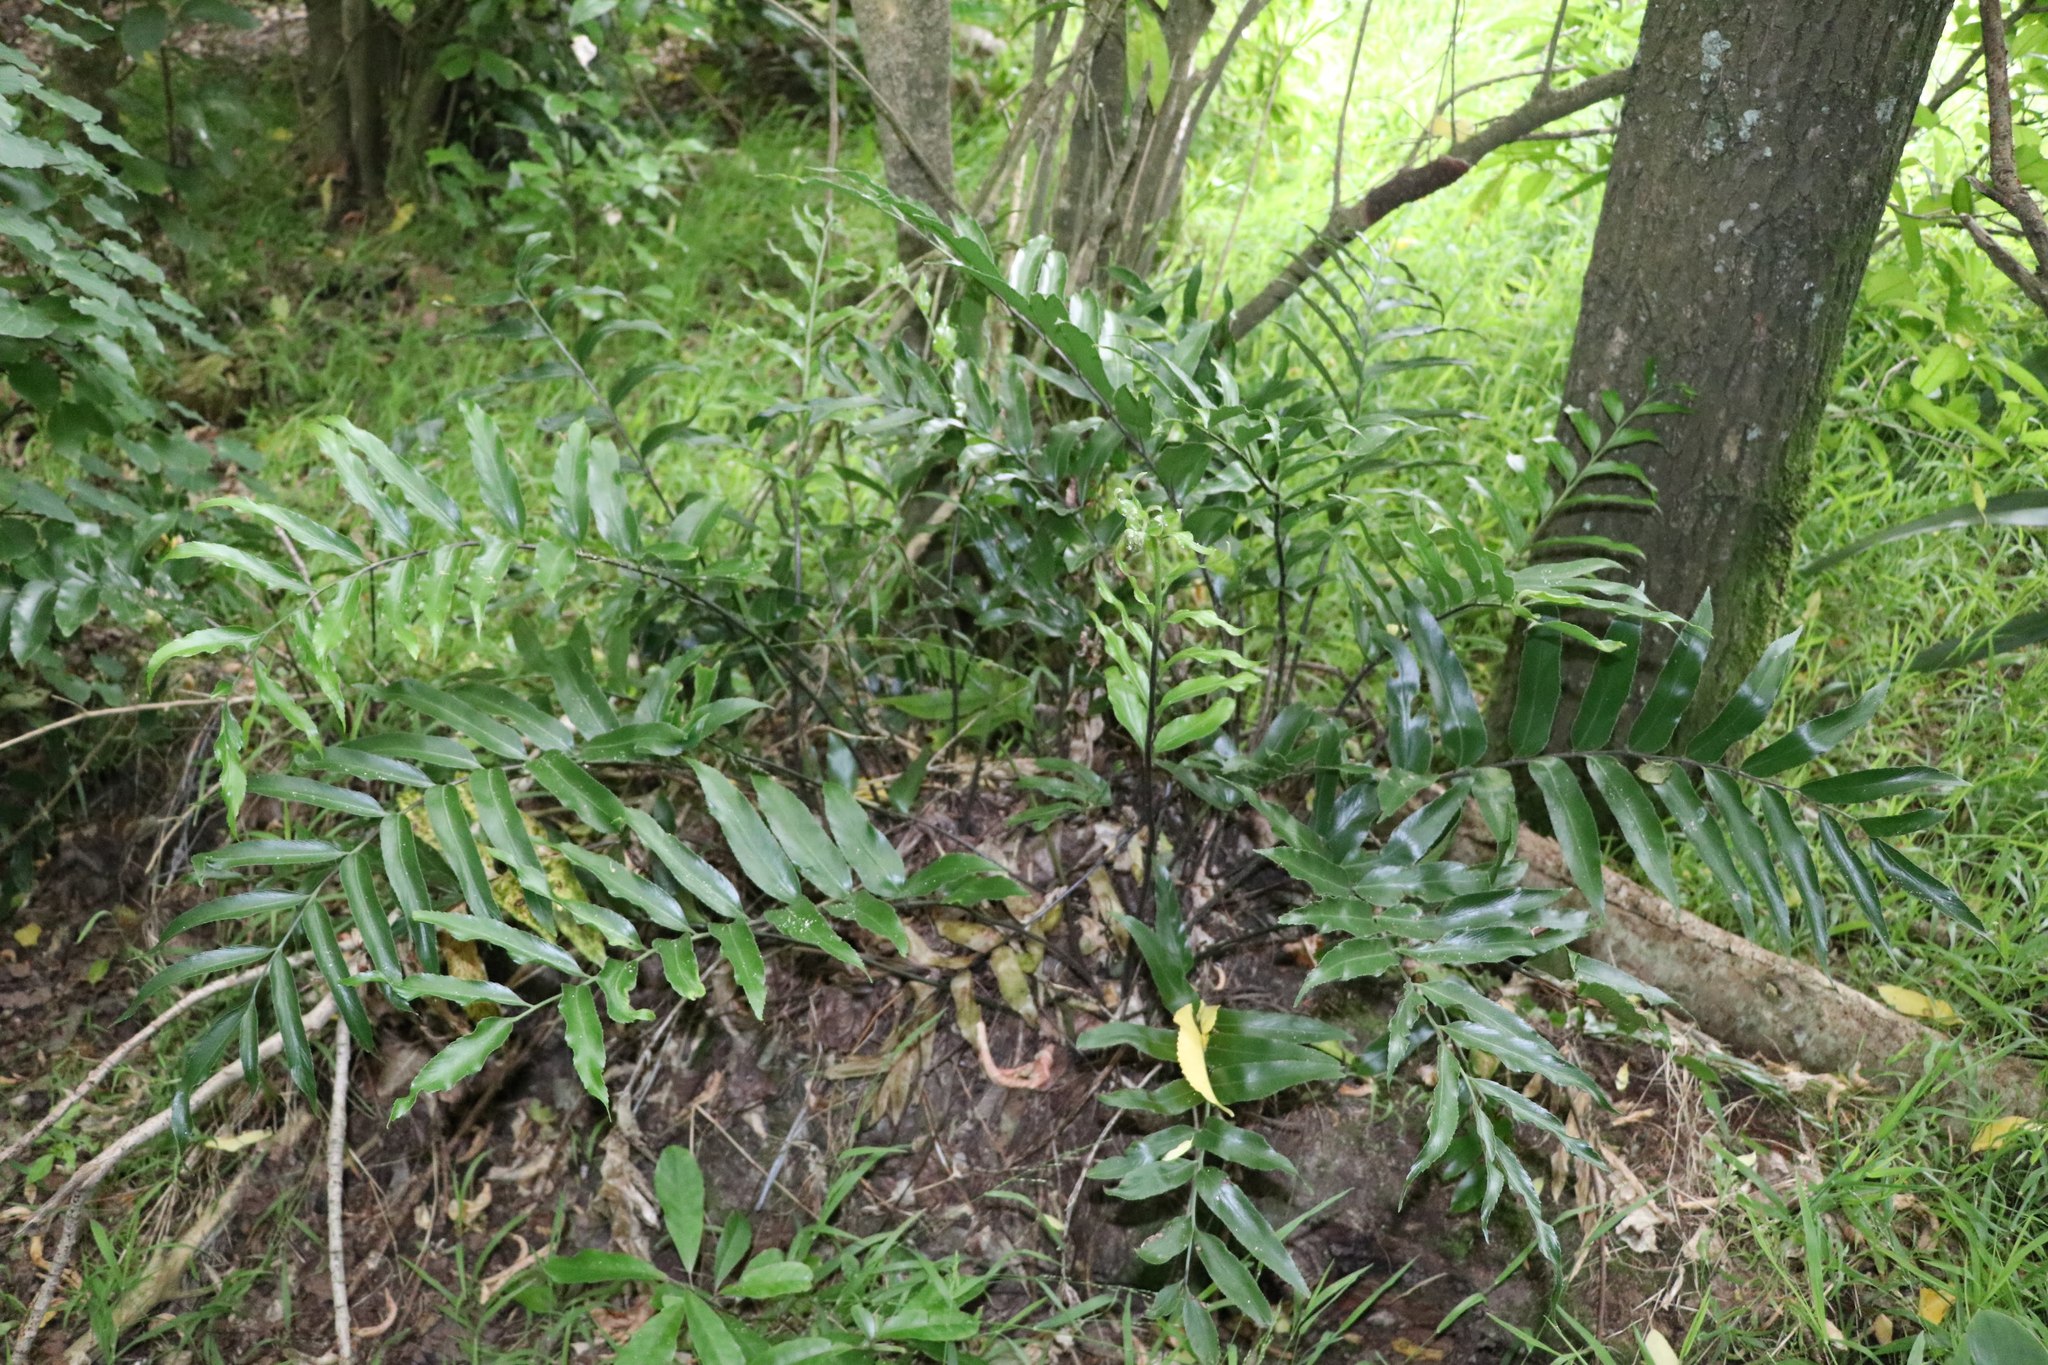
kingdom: Plantae
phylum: Tracheophyta
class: Polypodiopsida
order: Polypodiales
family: Aspleniaceae
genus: Asplenium
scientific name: Asplenium oblongifolium
